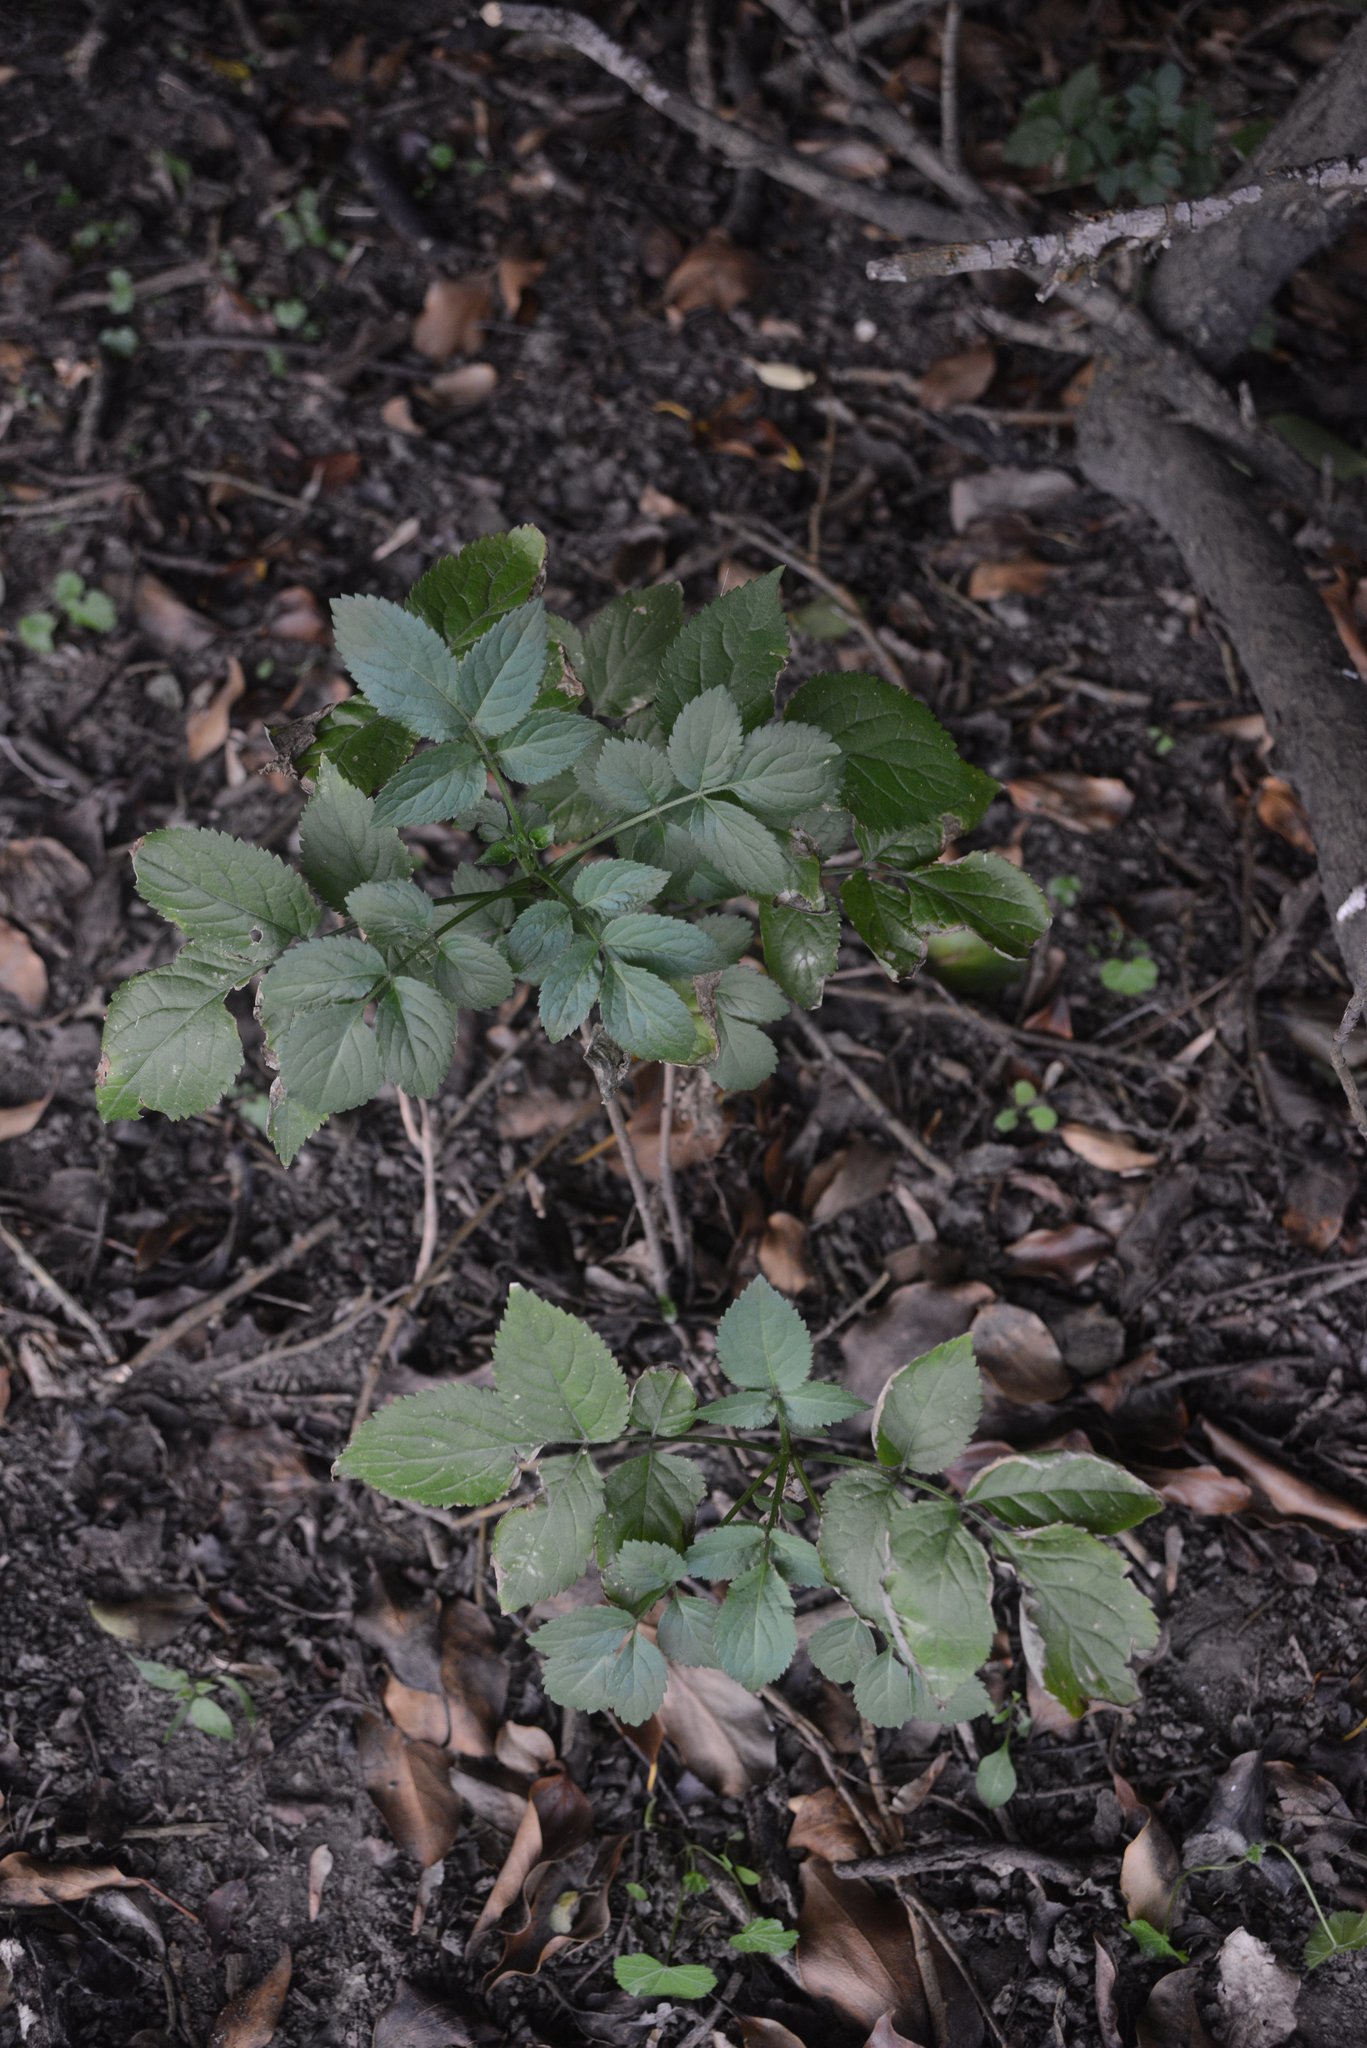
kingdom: Plantae
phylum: Tracheophyta
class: Magnoliopsida
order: Dipsacales
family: Viburnaceae
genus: Sambucus
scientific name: Sambucus nigra
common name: Elder
